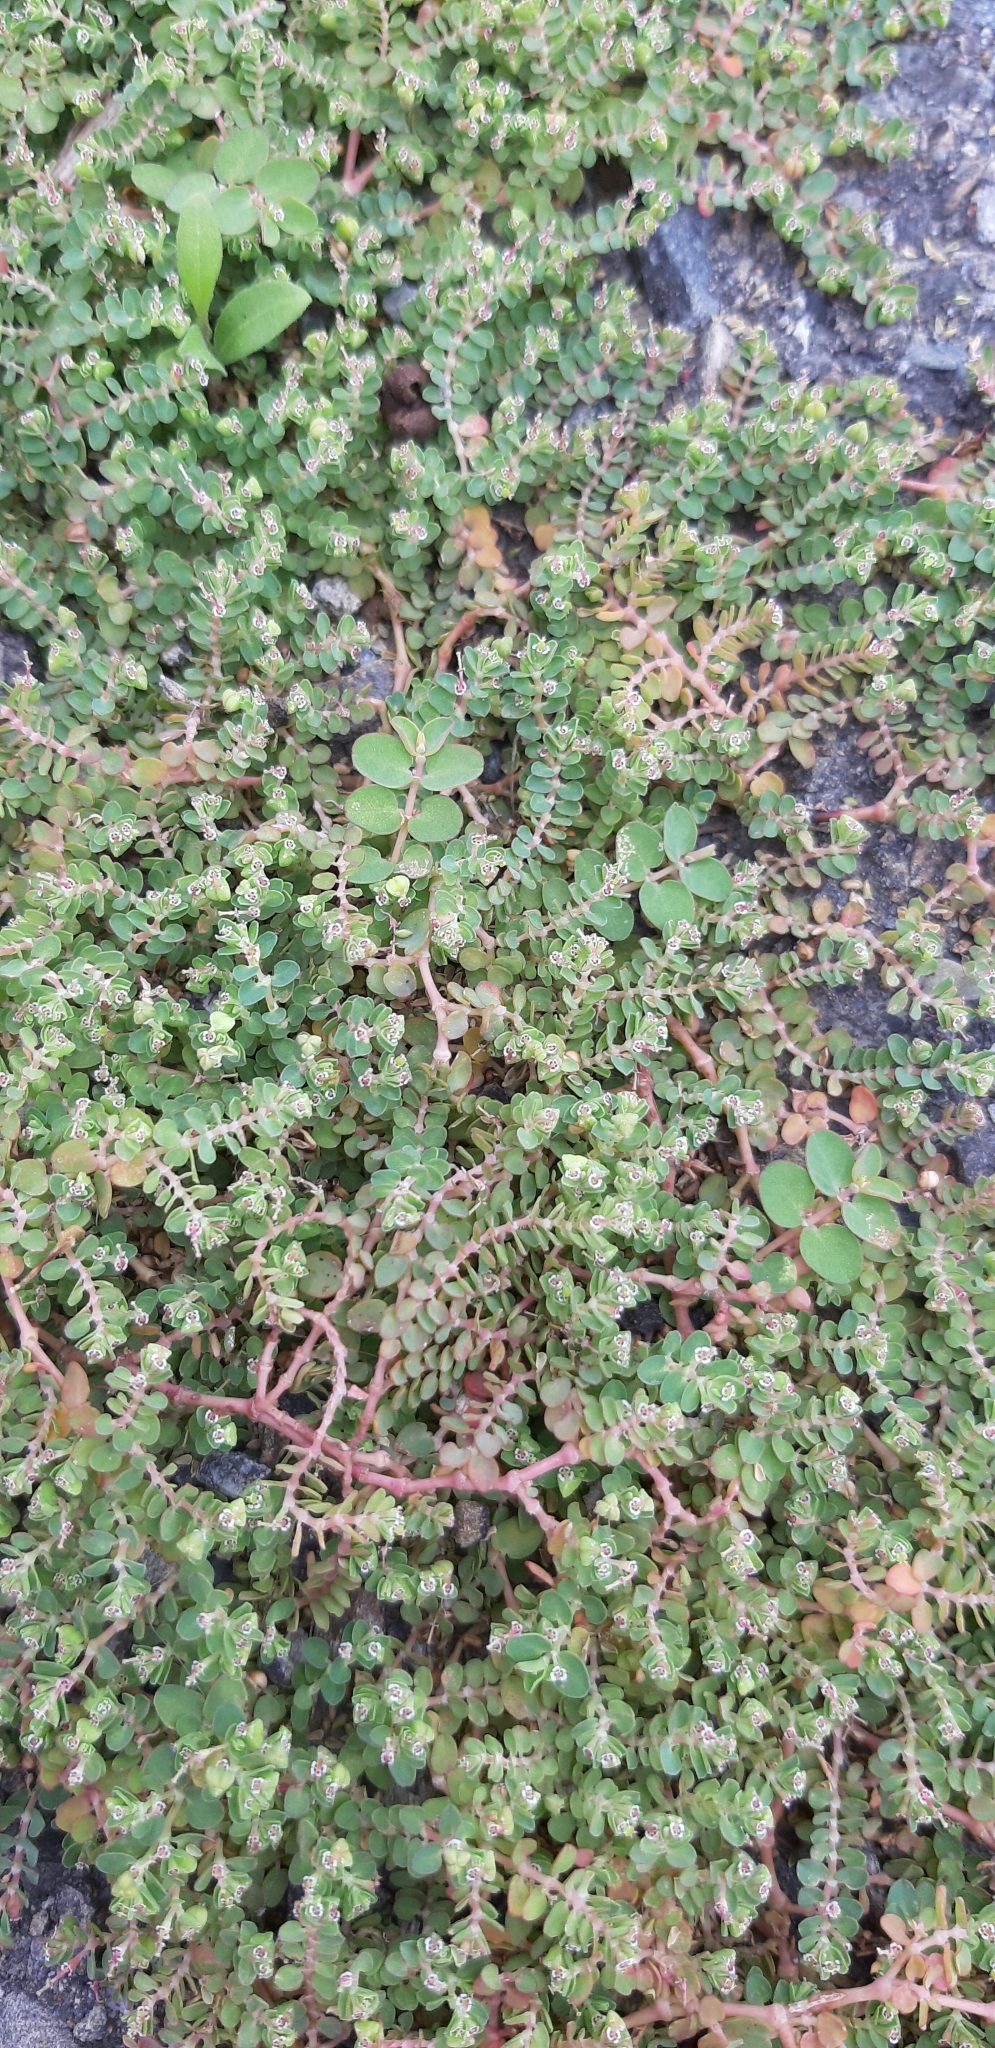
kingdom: Plantae
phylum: Tracheophyta
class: Magnoliopsida
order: Malpighiales
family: Euphorbiaceae
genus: Euphorbia
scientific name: Euphorbia serpens
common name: Matted sandmat
